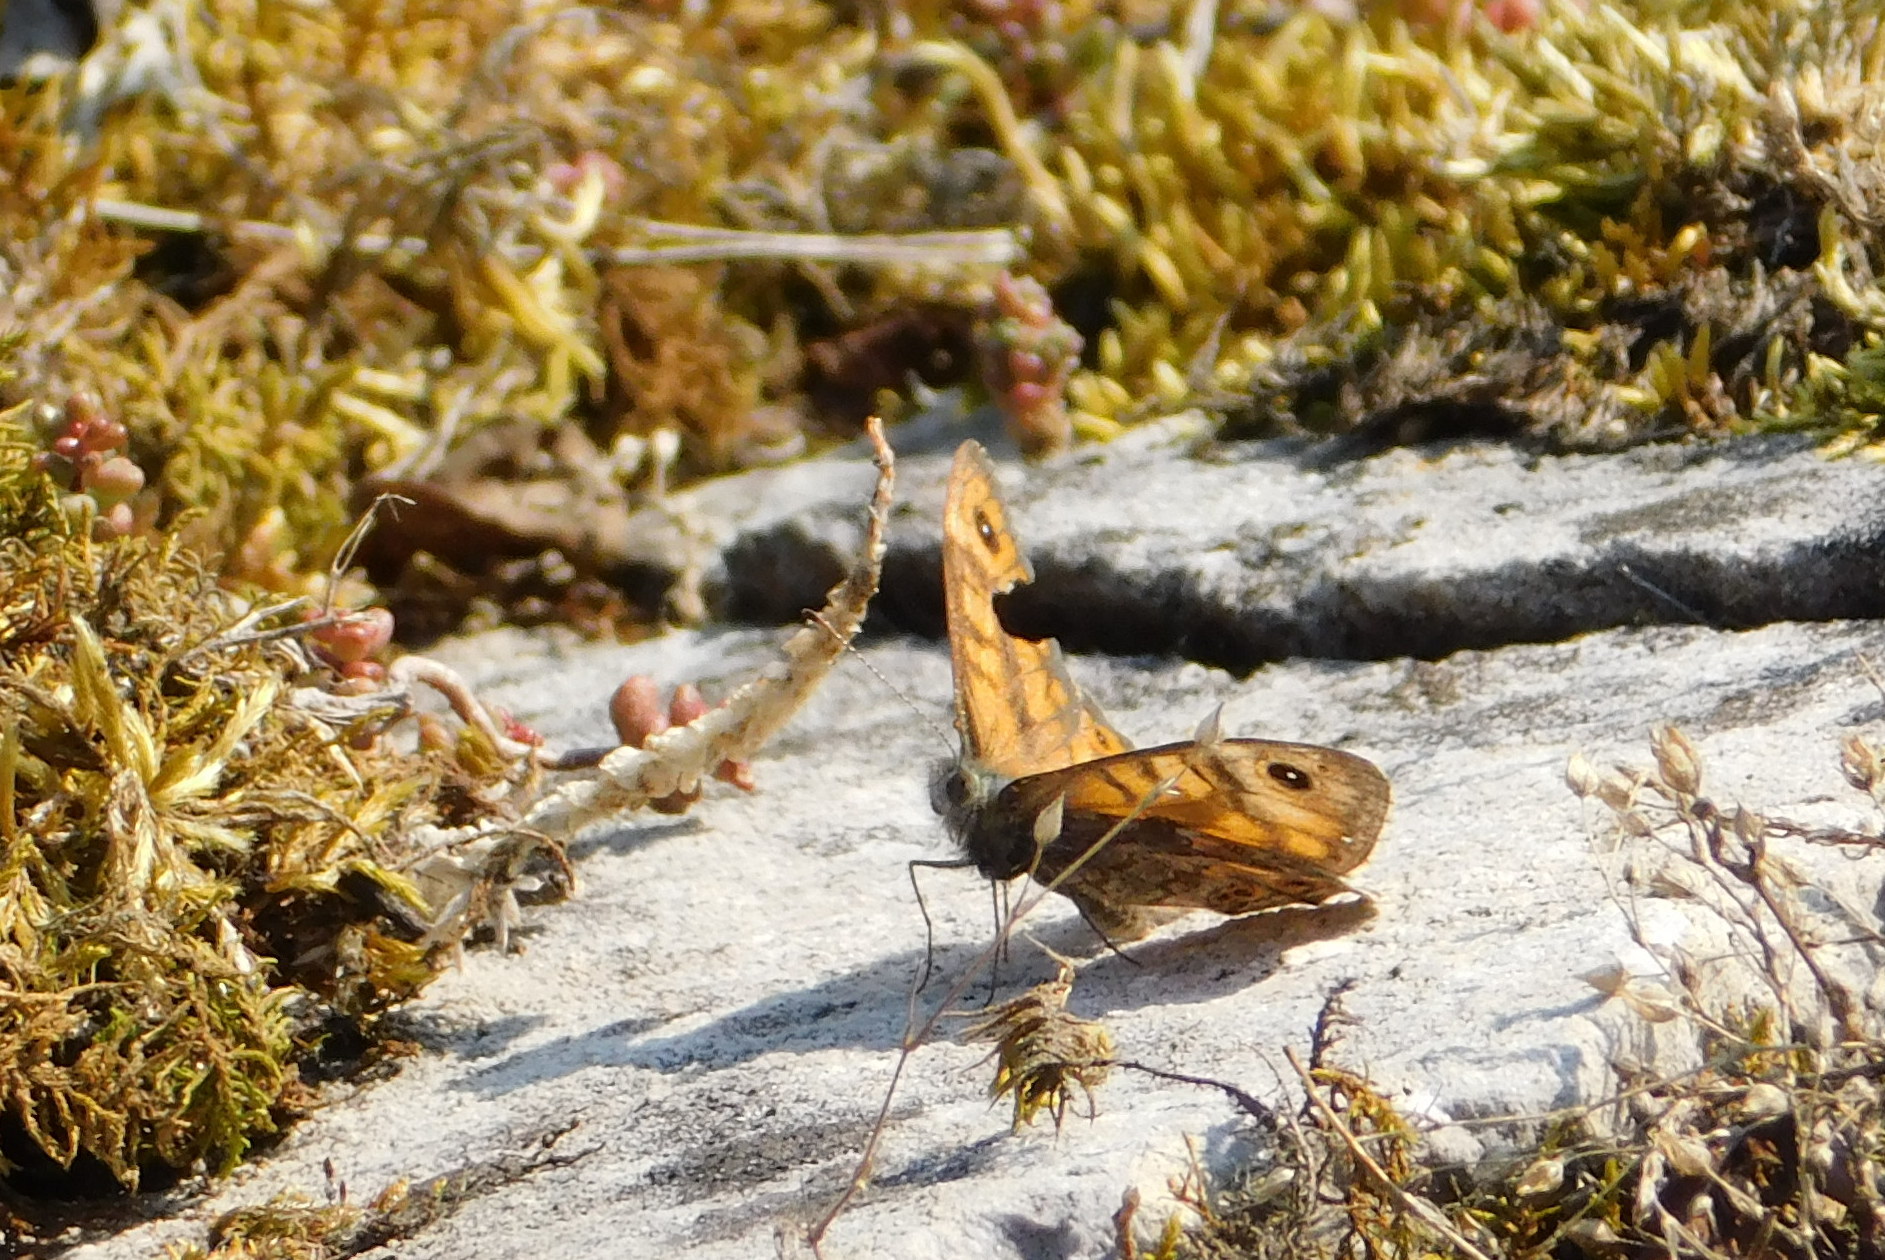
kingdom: Animalia
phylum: Arthropoda
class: Insecta
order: Lepidoptera
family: Nymphalidae
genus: Pararge
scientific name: Pararge Lasiommata megera
